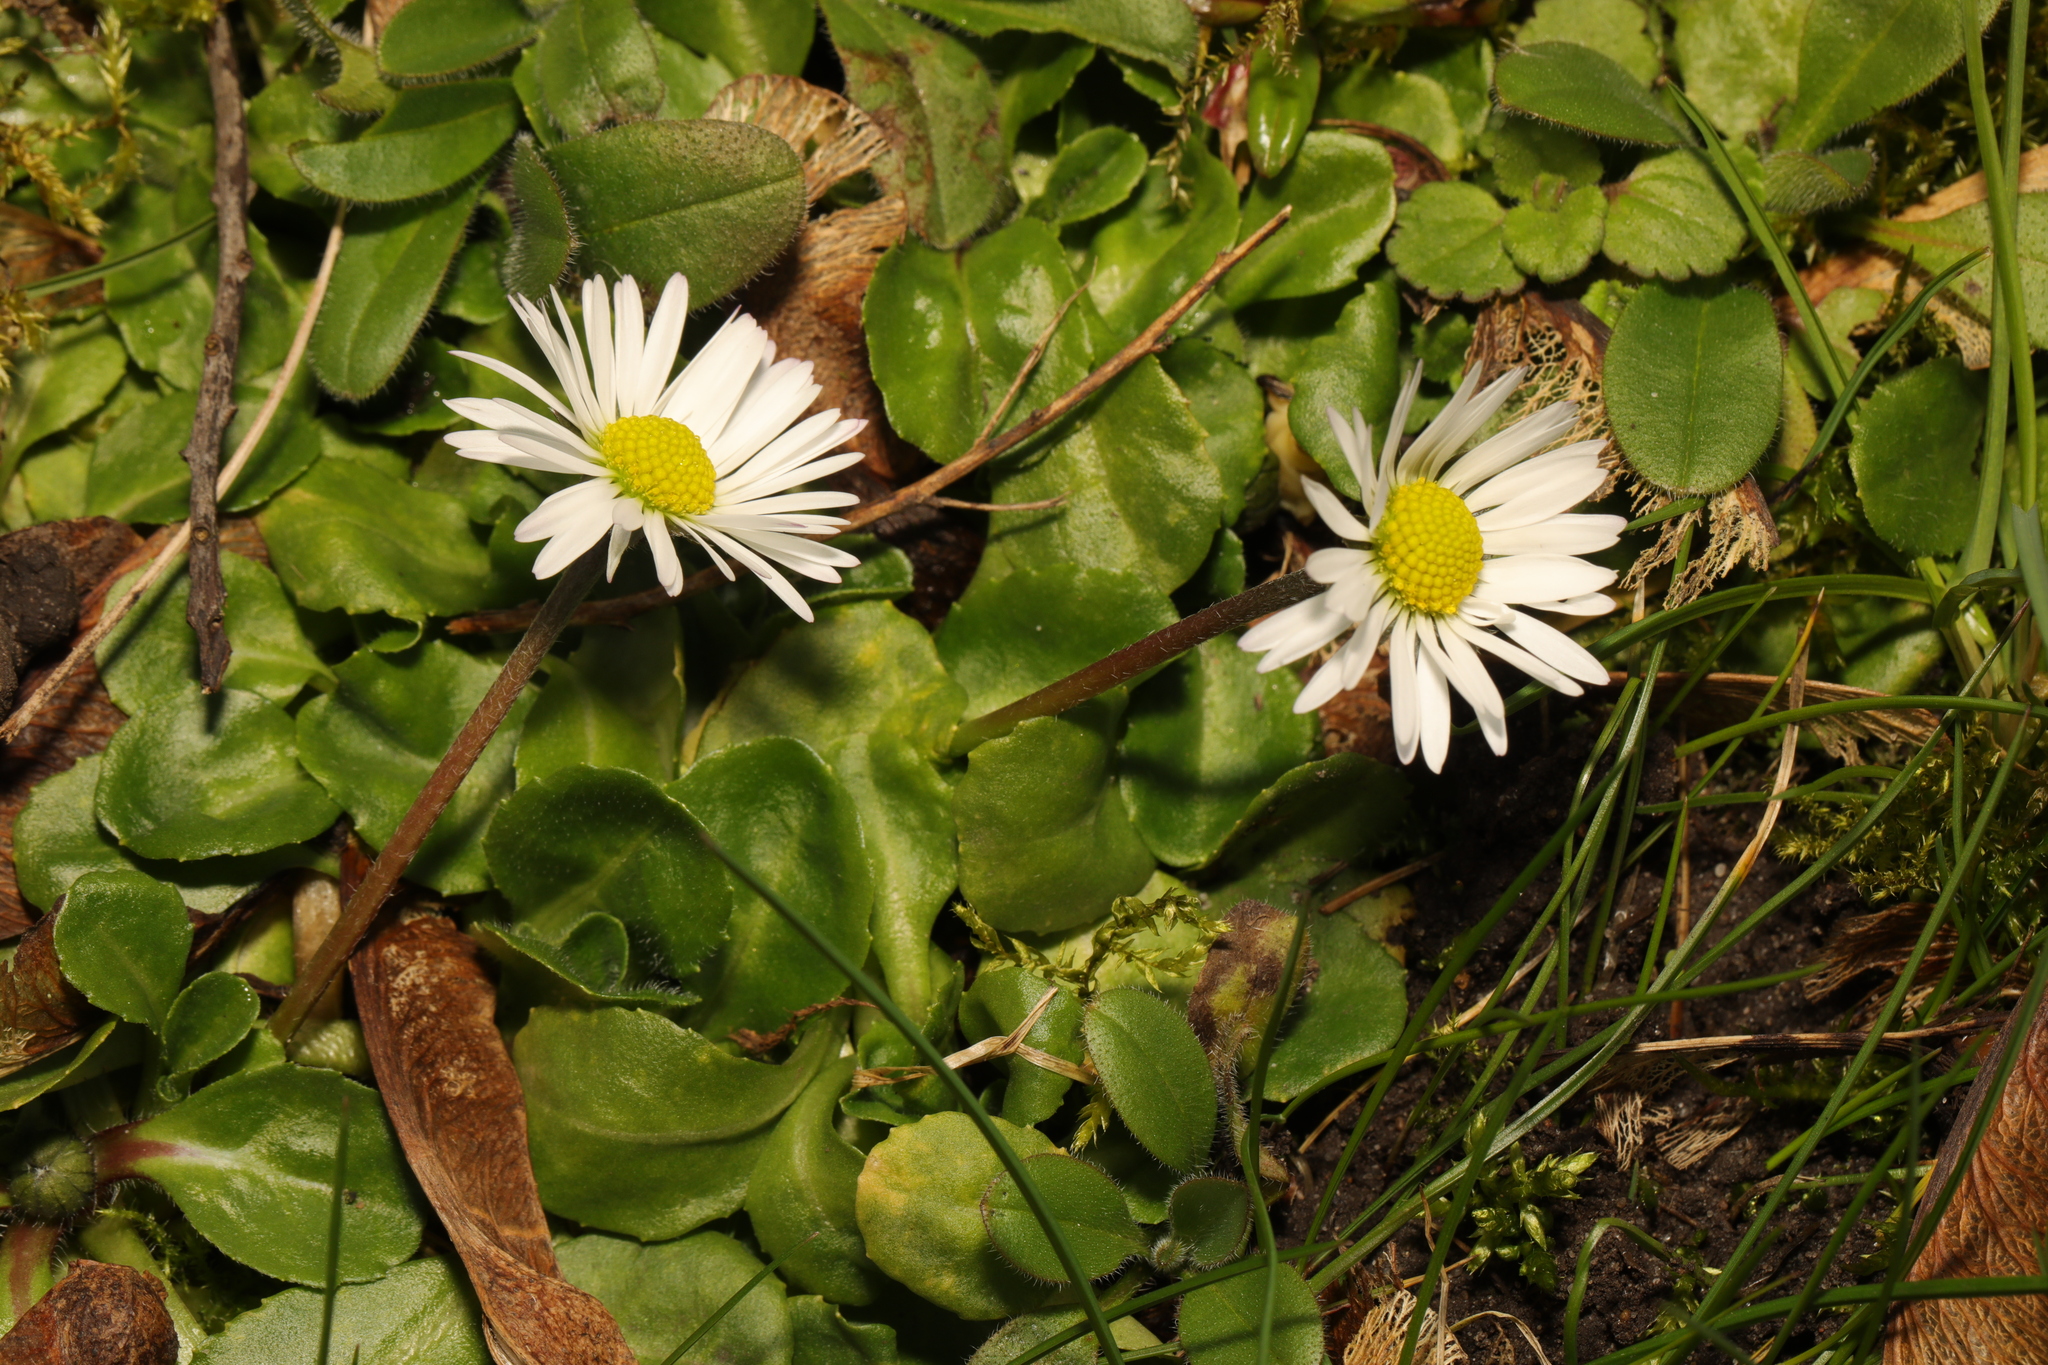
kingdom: Plantae
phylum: Tracheophyta
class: Magnoliopsida
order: Asterales
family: Asteraceae
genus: Bellis
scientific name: Bellis perennis
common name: Lawndaisy
